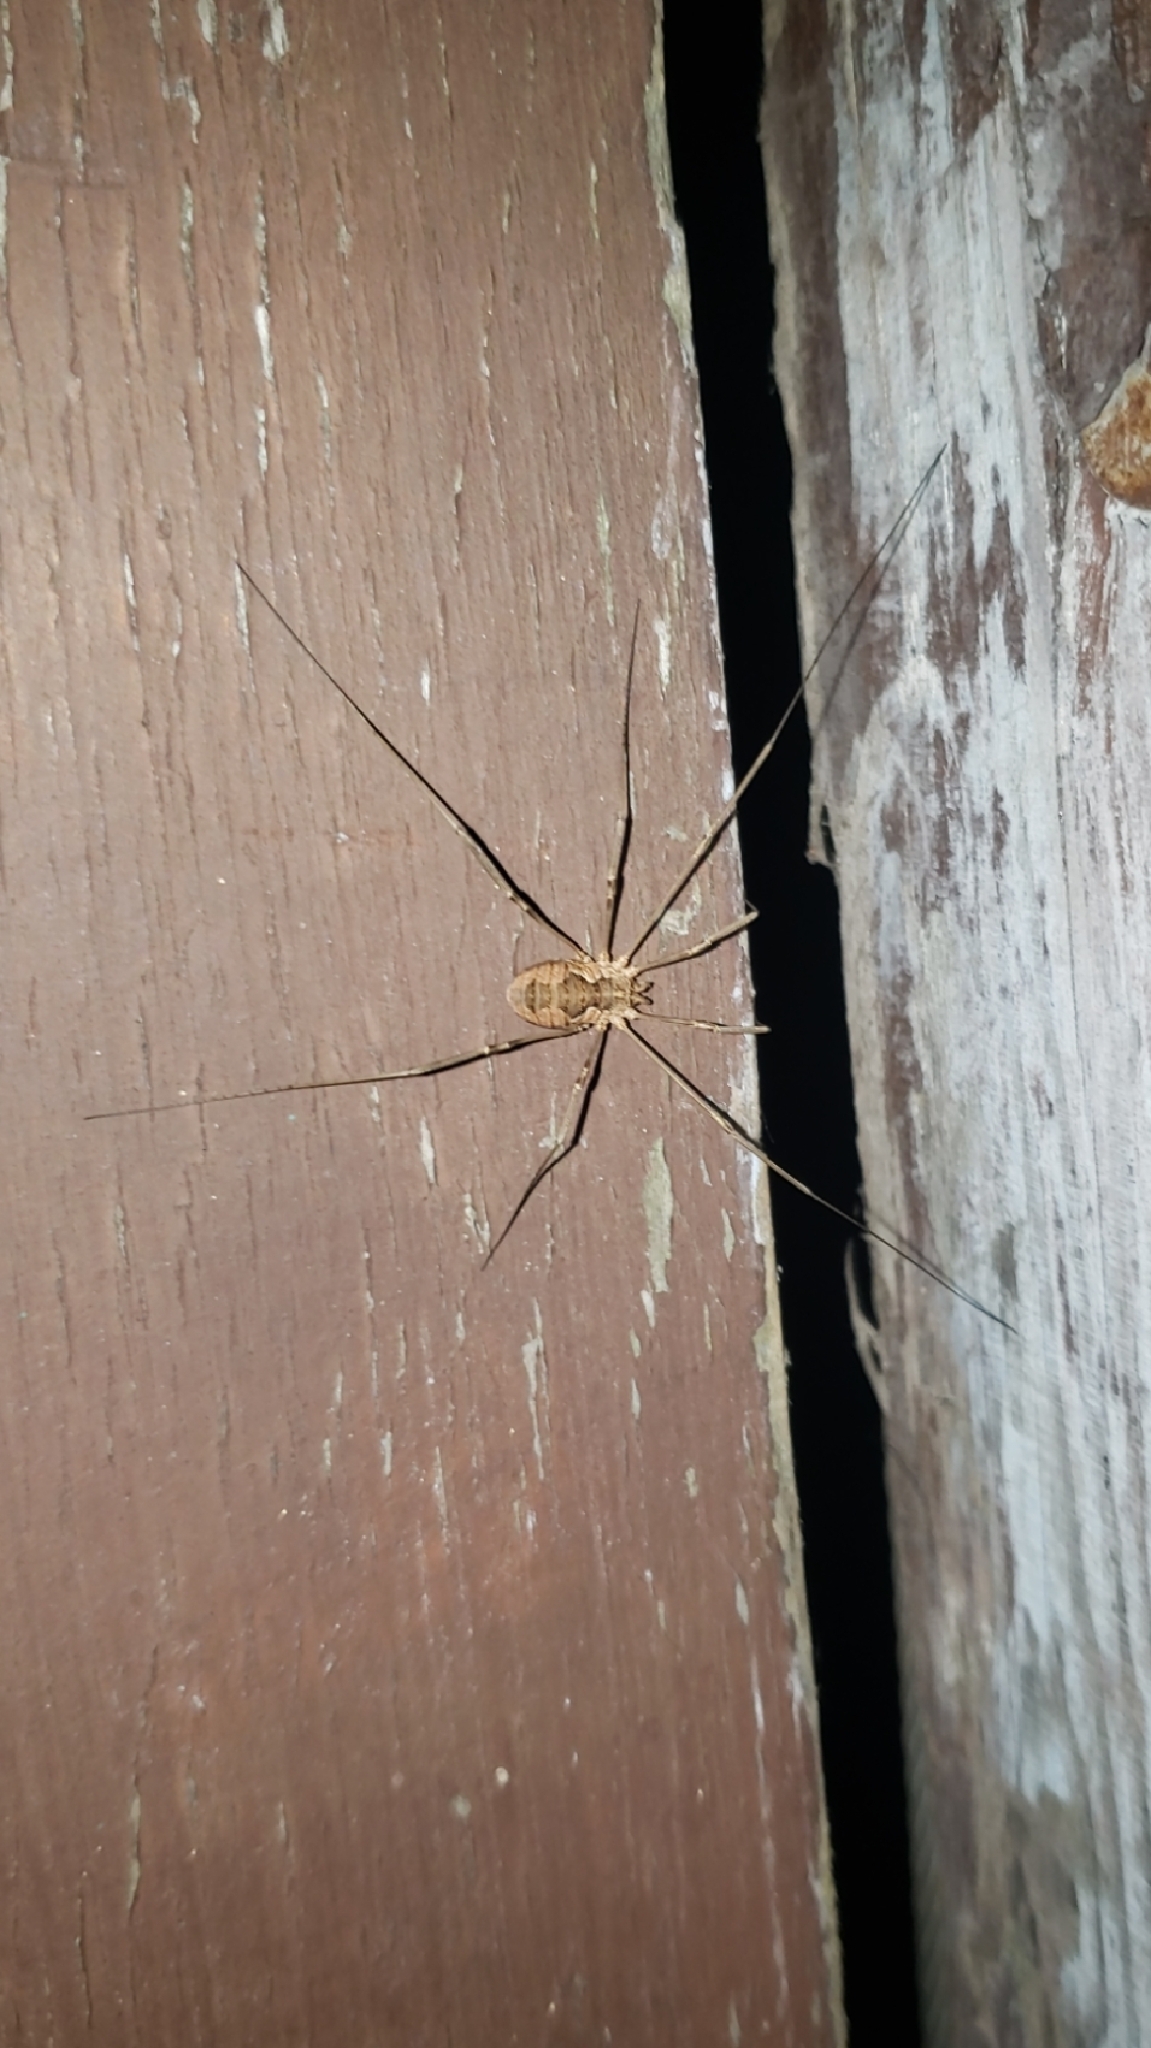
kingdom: Animalia
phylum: Arthropoda
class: Arachnida
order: Opiliones
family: Phalangiidae
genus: Phalangium
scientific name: Phalangium opilio
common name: Daddy longleg
